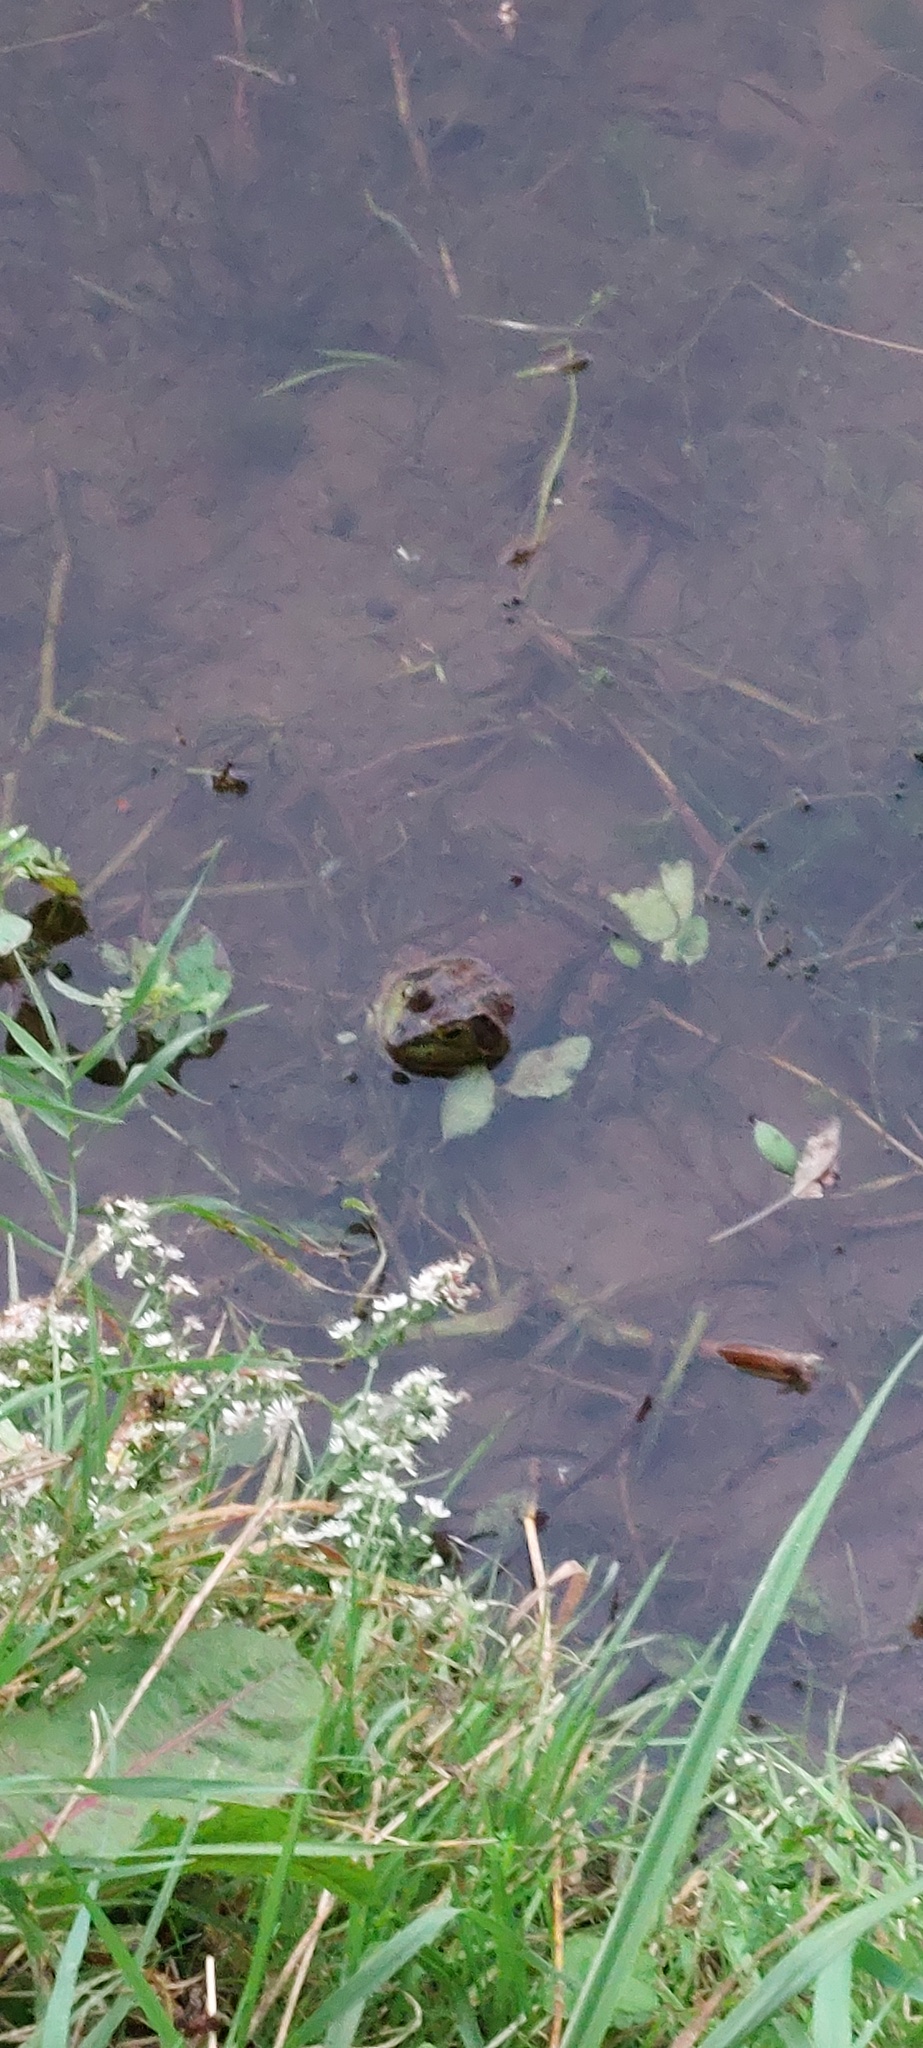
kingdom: Animalia
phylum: Chordata
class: Amphibia
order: Anura
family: Ranidae
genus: Lithobates
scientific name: Lithobates catesbeianus
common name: American bullfrog
